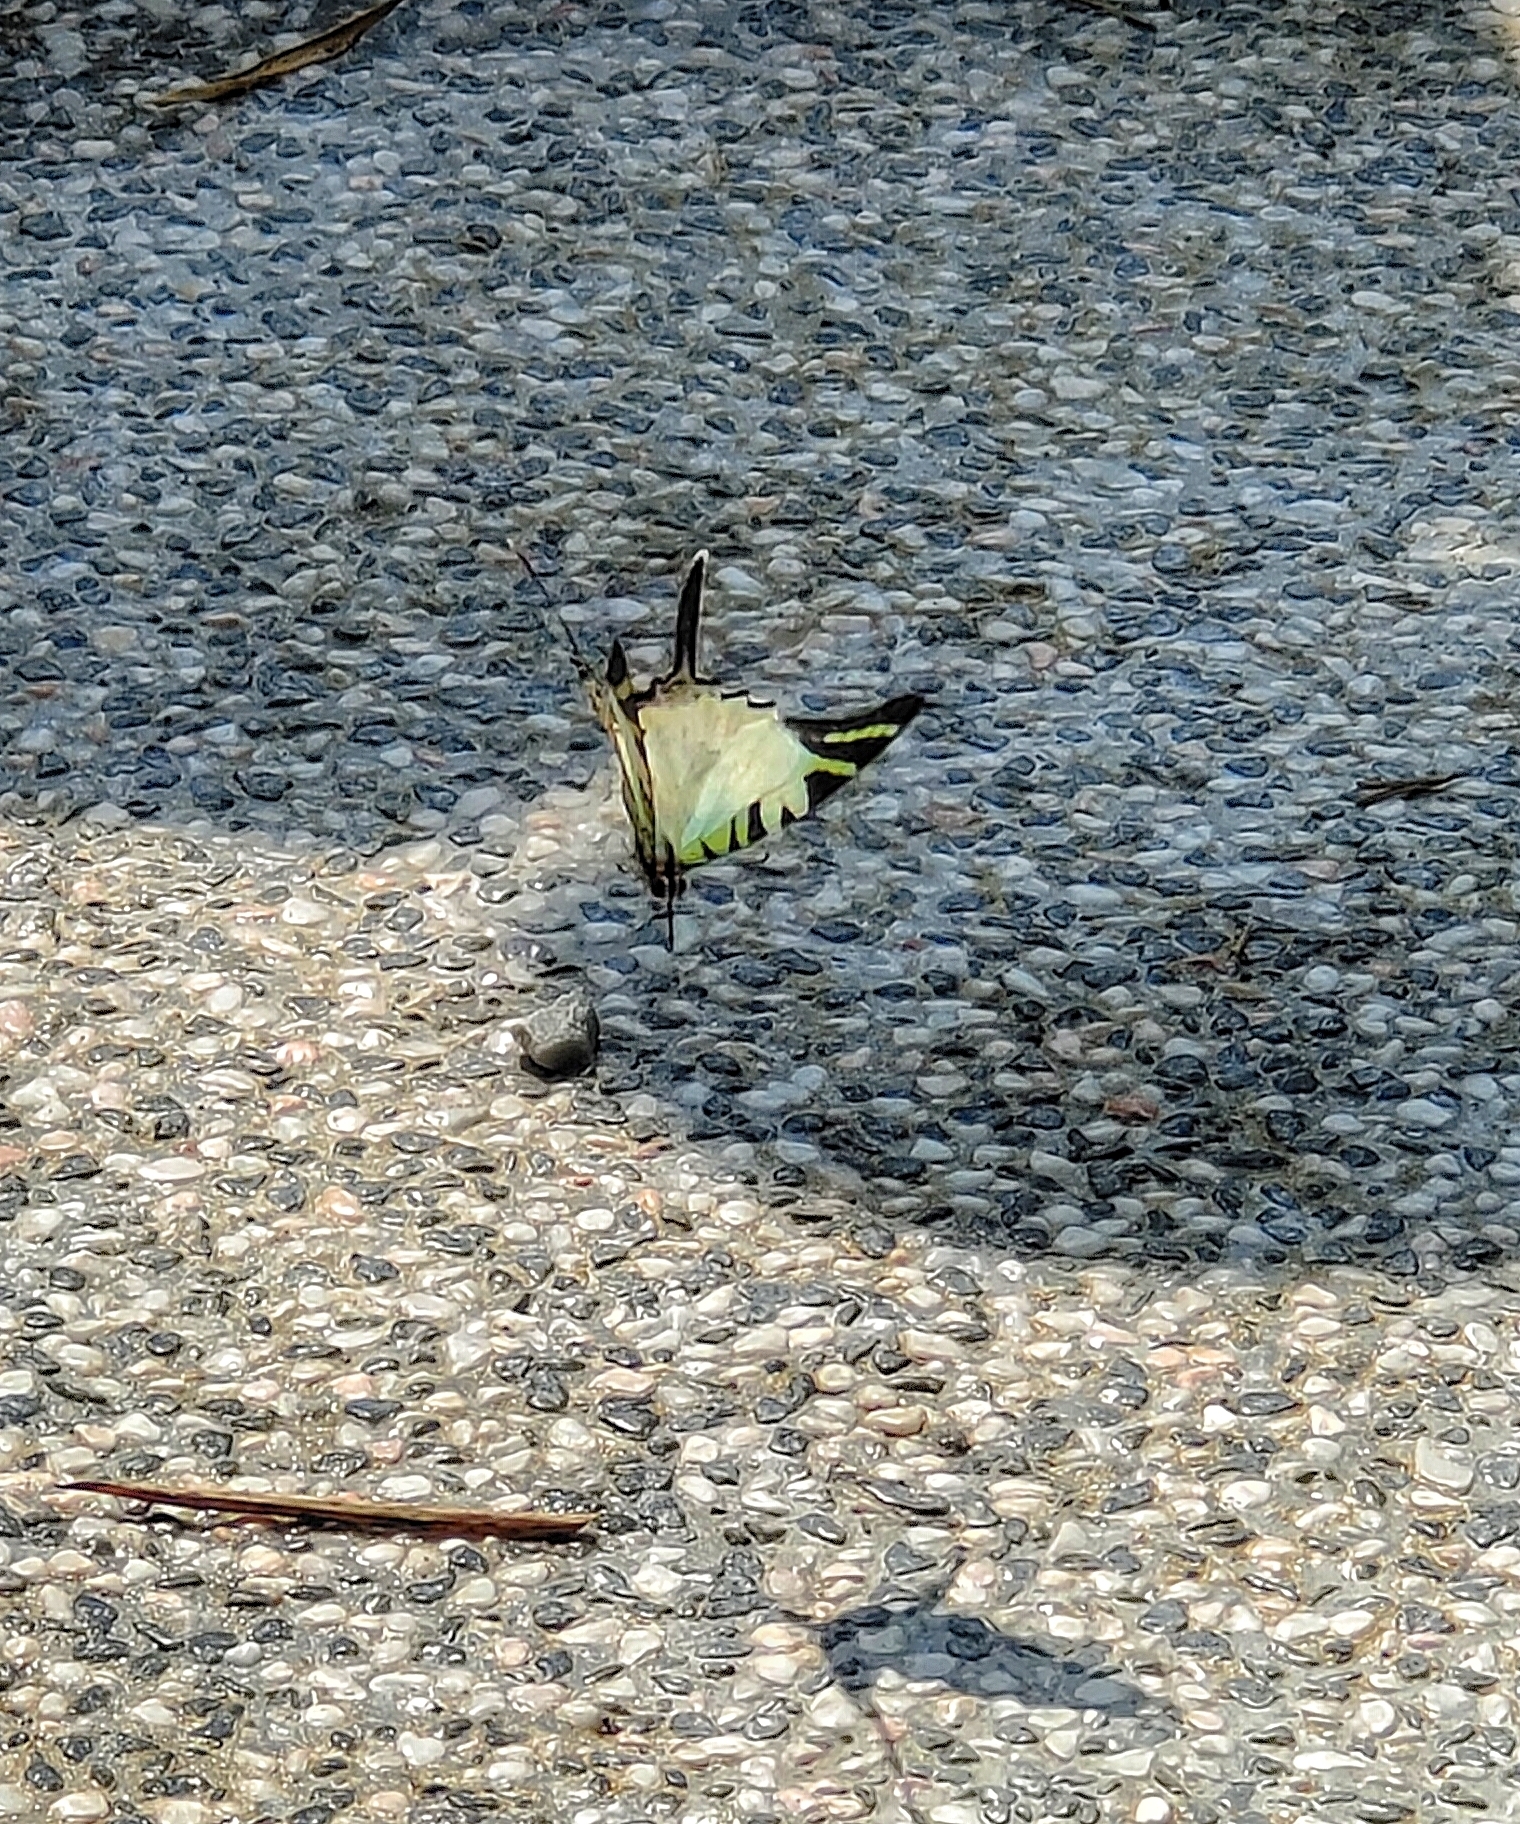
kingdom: Animalia
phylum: Arthropoda
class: Insecta
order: Lepidoptera
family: Papilionidae
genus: Graphium
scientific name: Graphium antiphates
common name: Fivebar swordtail
